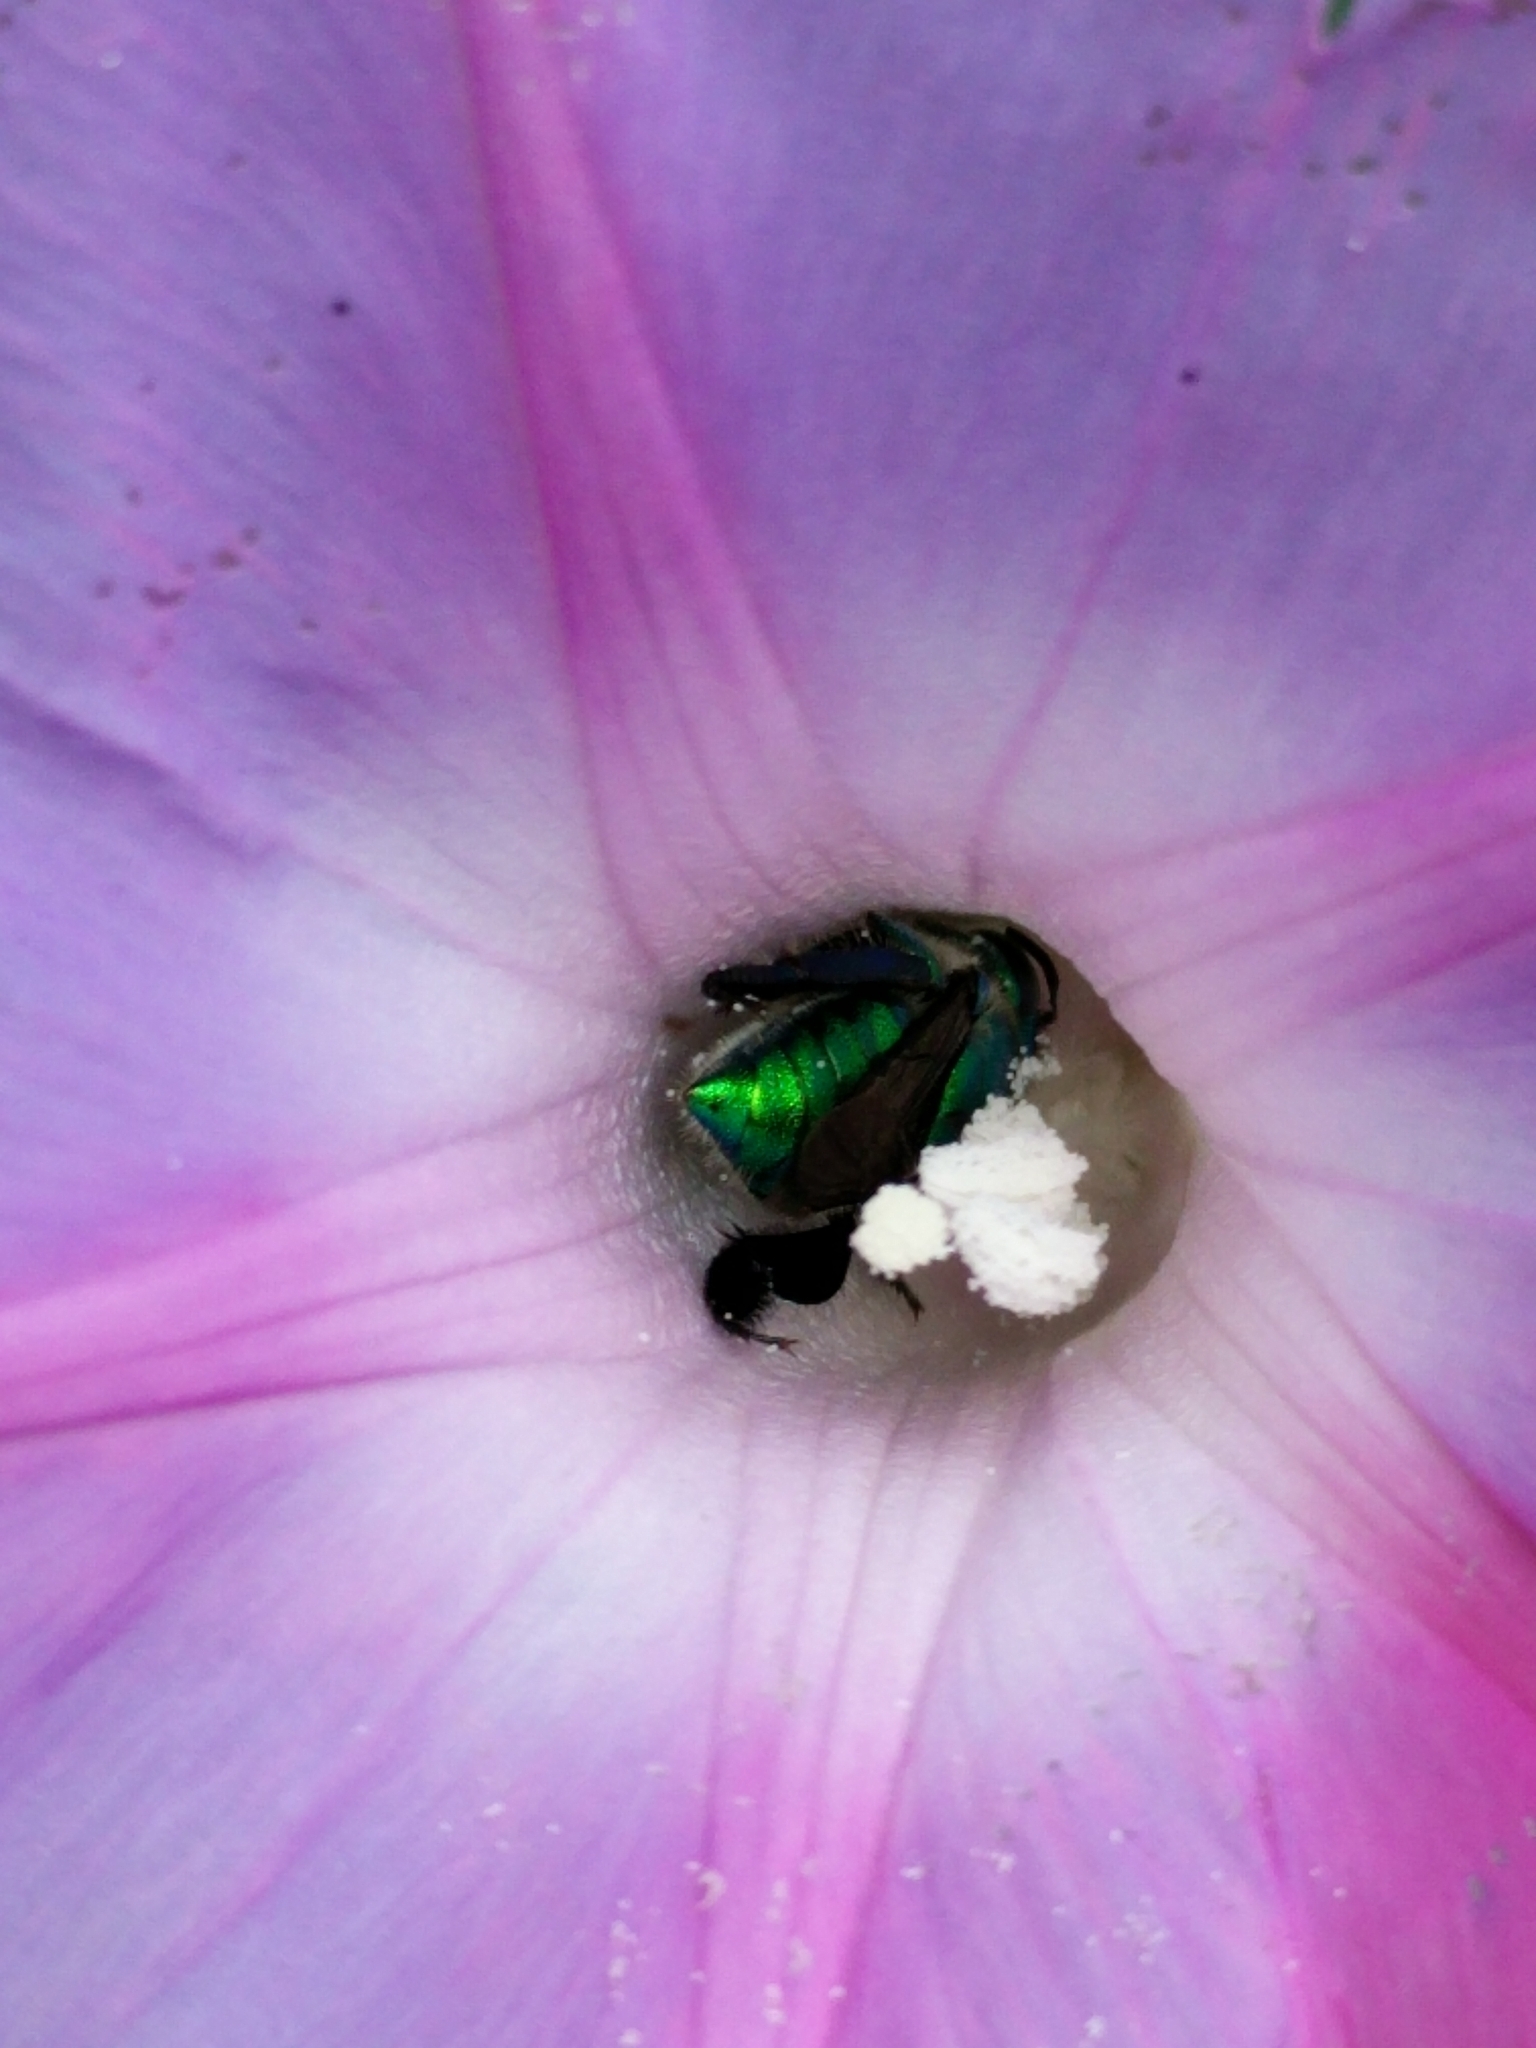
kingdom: Animalia
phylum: Arthropoda
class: Insecta
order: Hymenoptera
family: Apidae
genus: Euglossa
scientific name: Euglossa dilemma
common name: Green orchid bee
